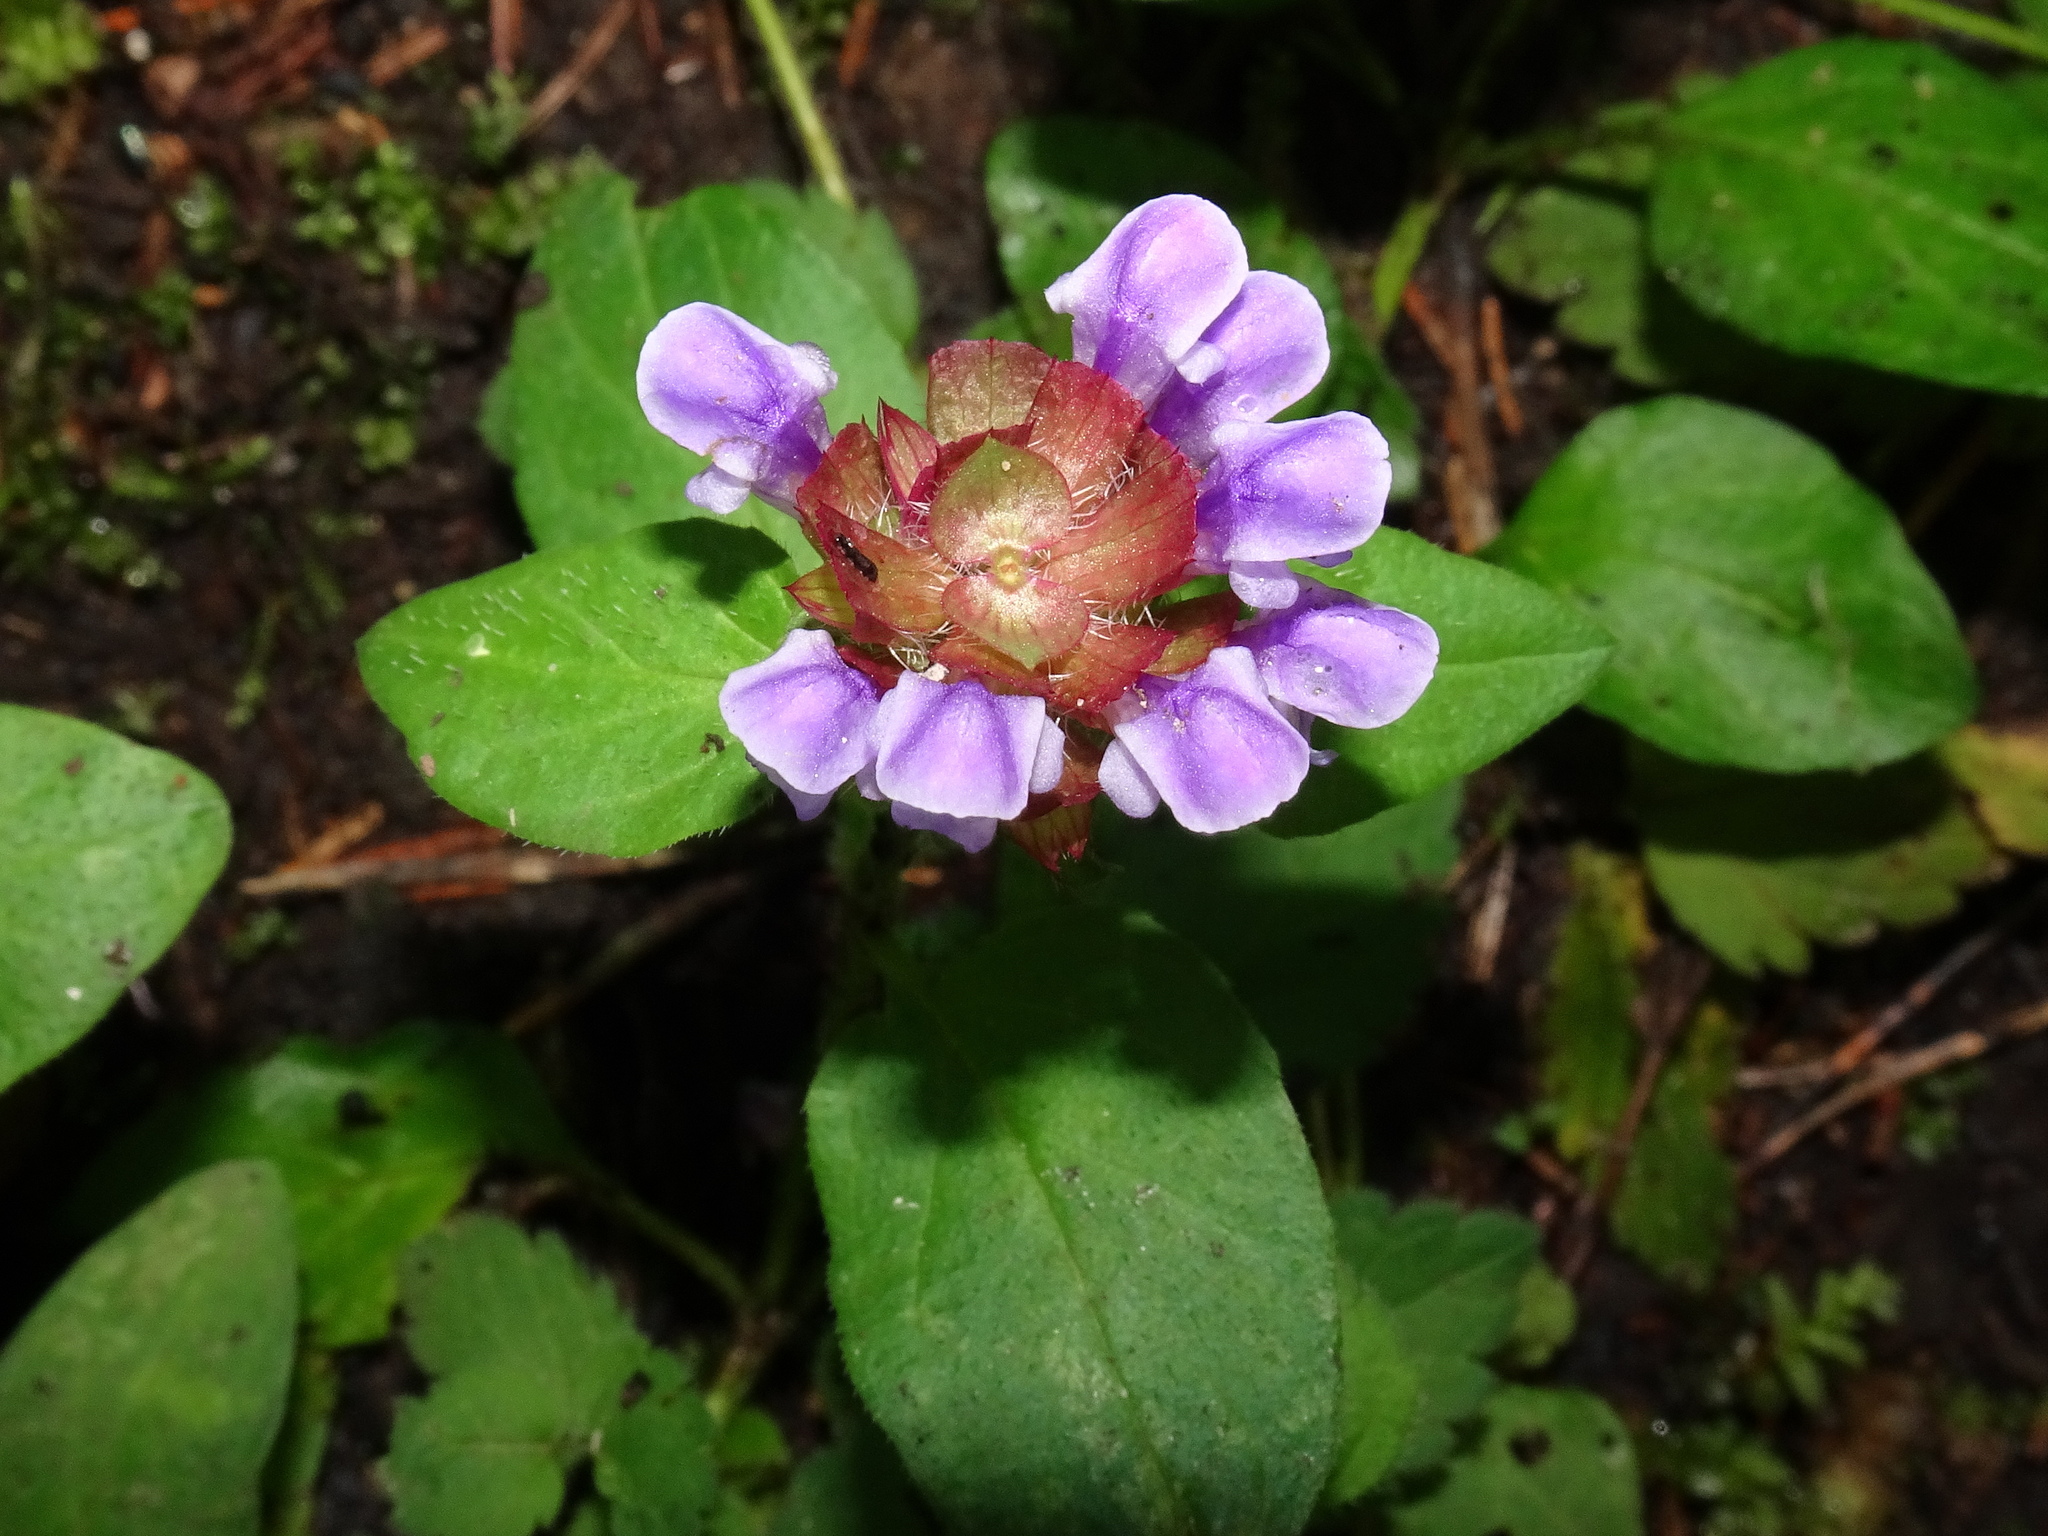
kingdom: Plantae
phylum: Tracheophyta
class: Magnoliopsida
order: Lamiales
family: Lamiaceae
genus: Prunella
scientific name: Prunella vulgaris
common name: Heal-all
